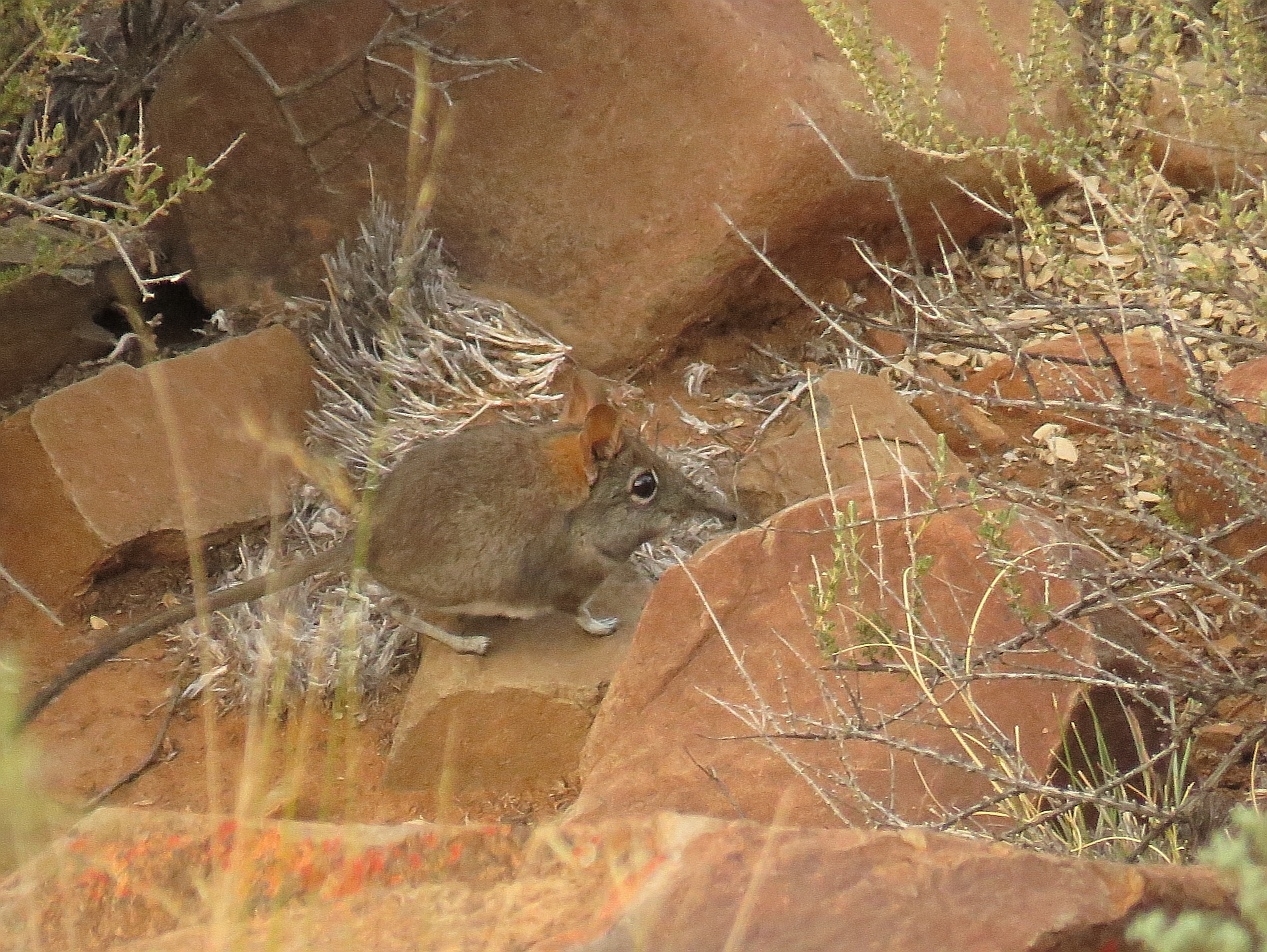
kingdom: Animalia
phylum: Chordata
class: Mammalia
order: Macroscelidea
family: Macroscelididae
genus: Elephantulus
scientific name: Elephantulus rupestris
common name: Western rock elephant shrew
